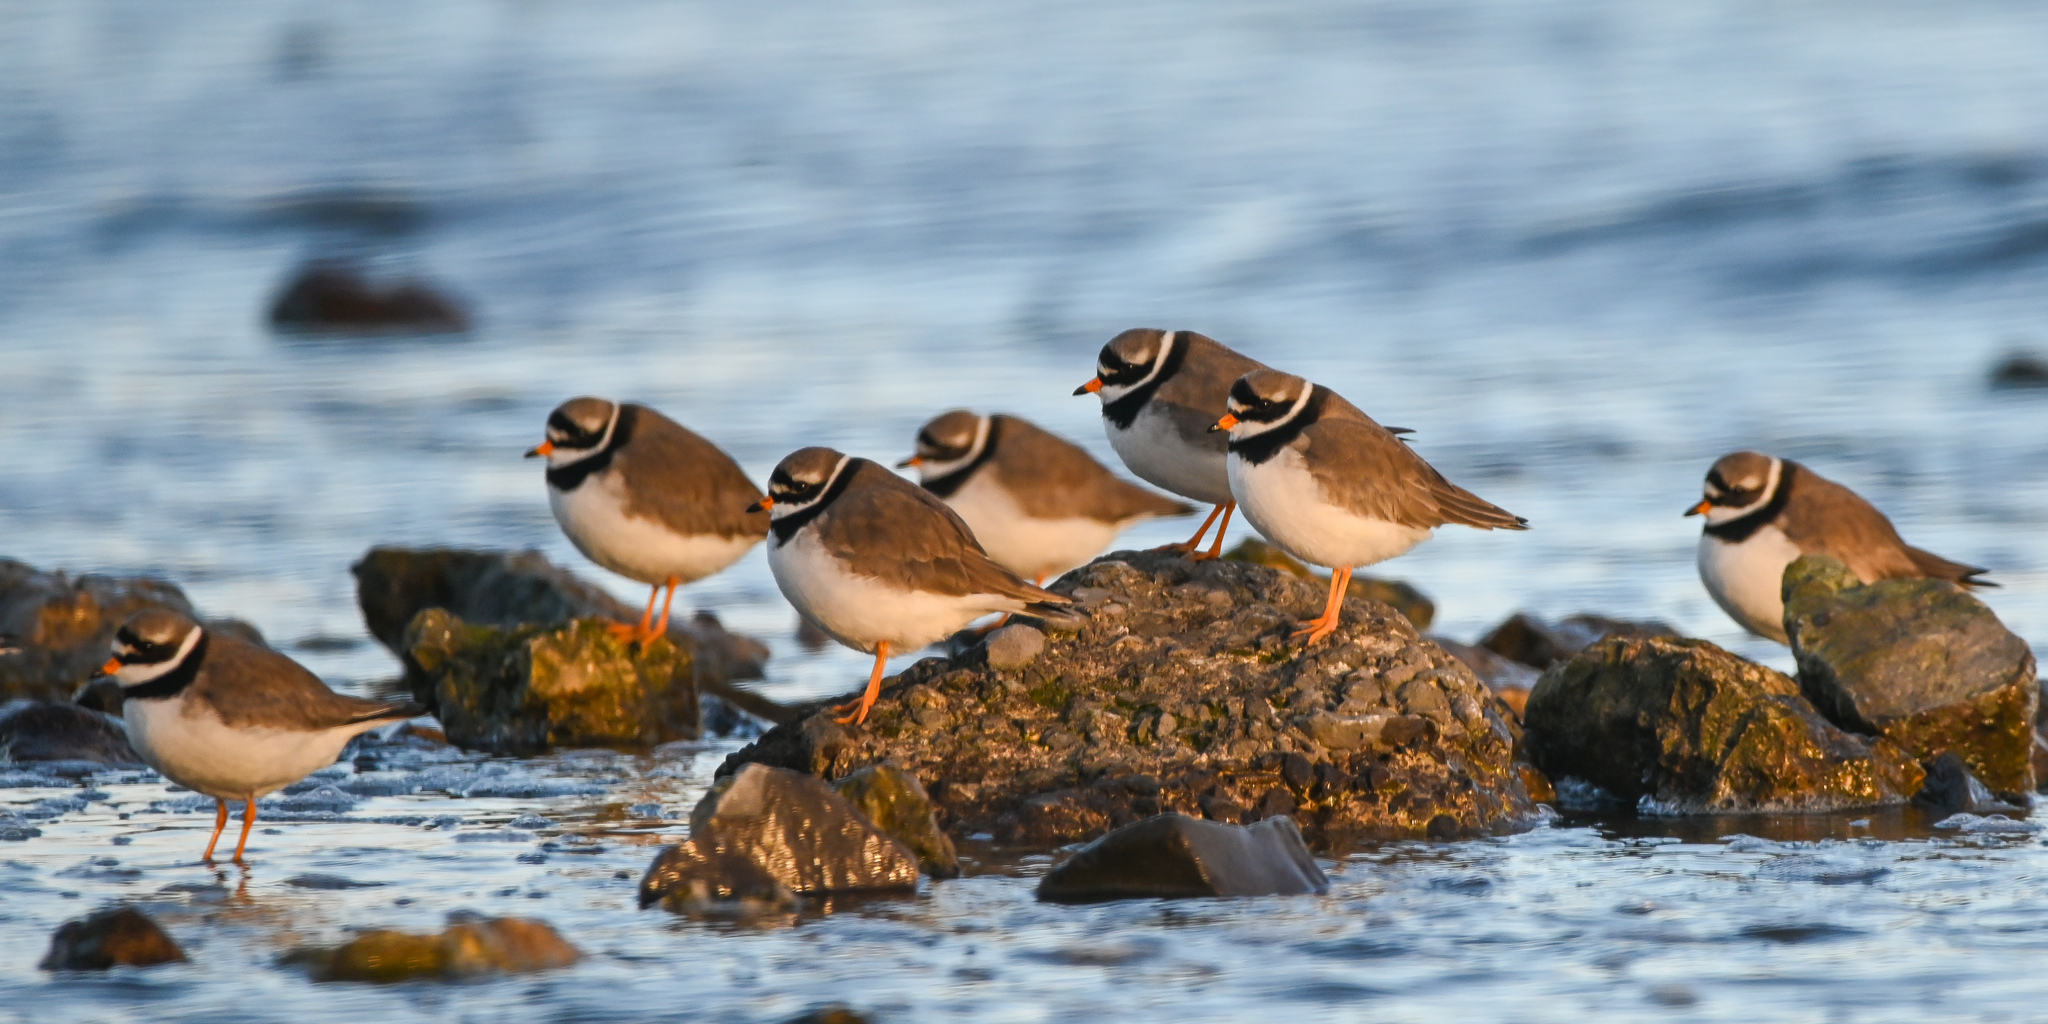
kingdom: Animalia
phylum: Chordata
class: Aves
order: Charadriiformes
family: Charadriidae
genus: Charadrius
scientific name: Charadrius hiaticula
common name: Common ringed plover
